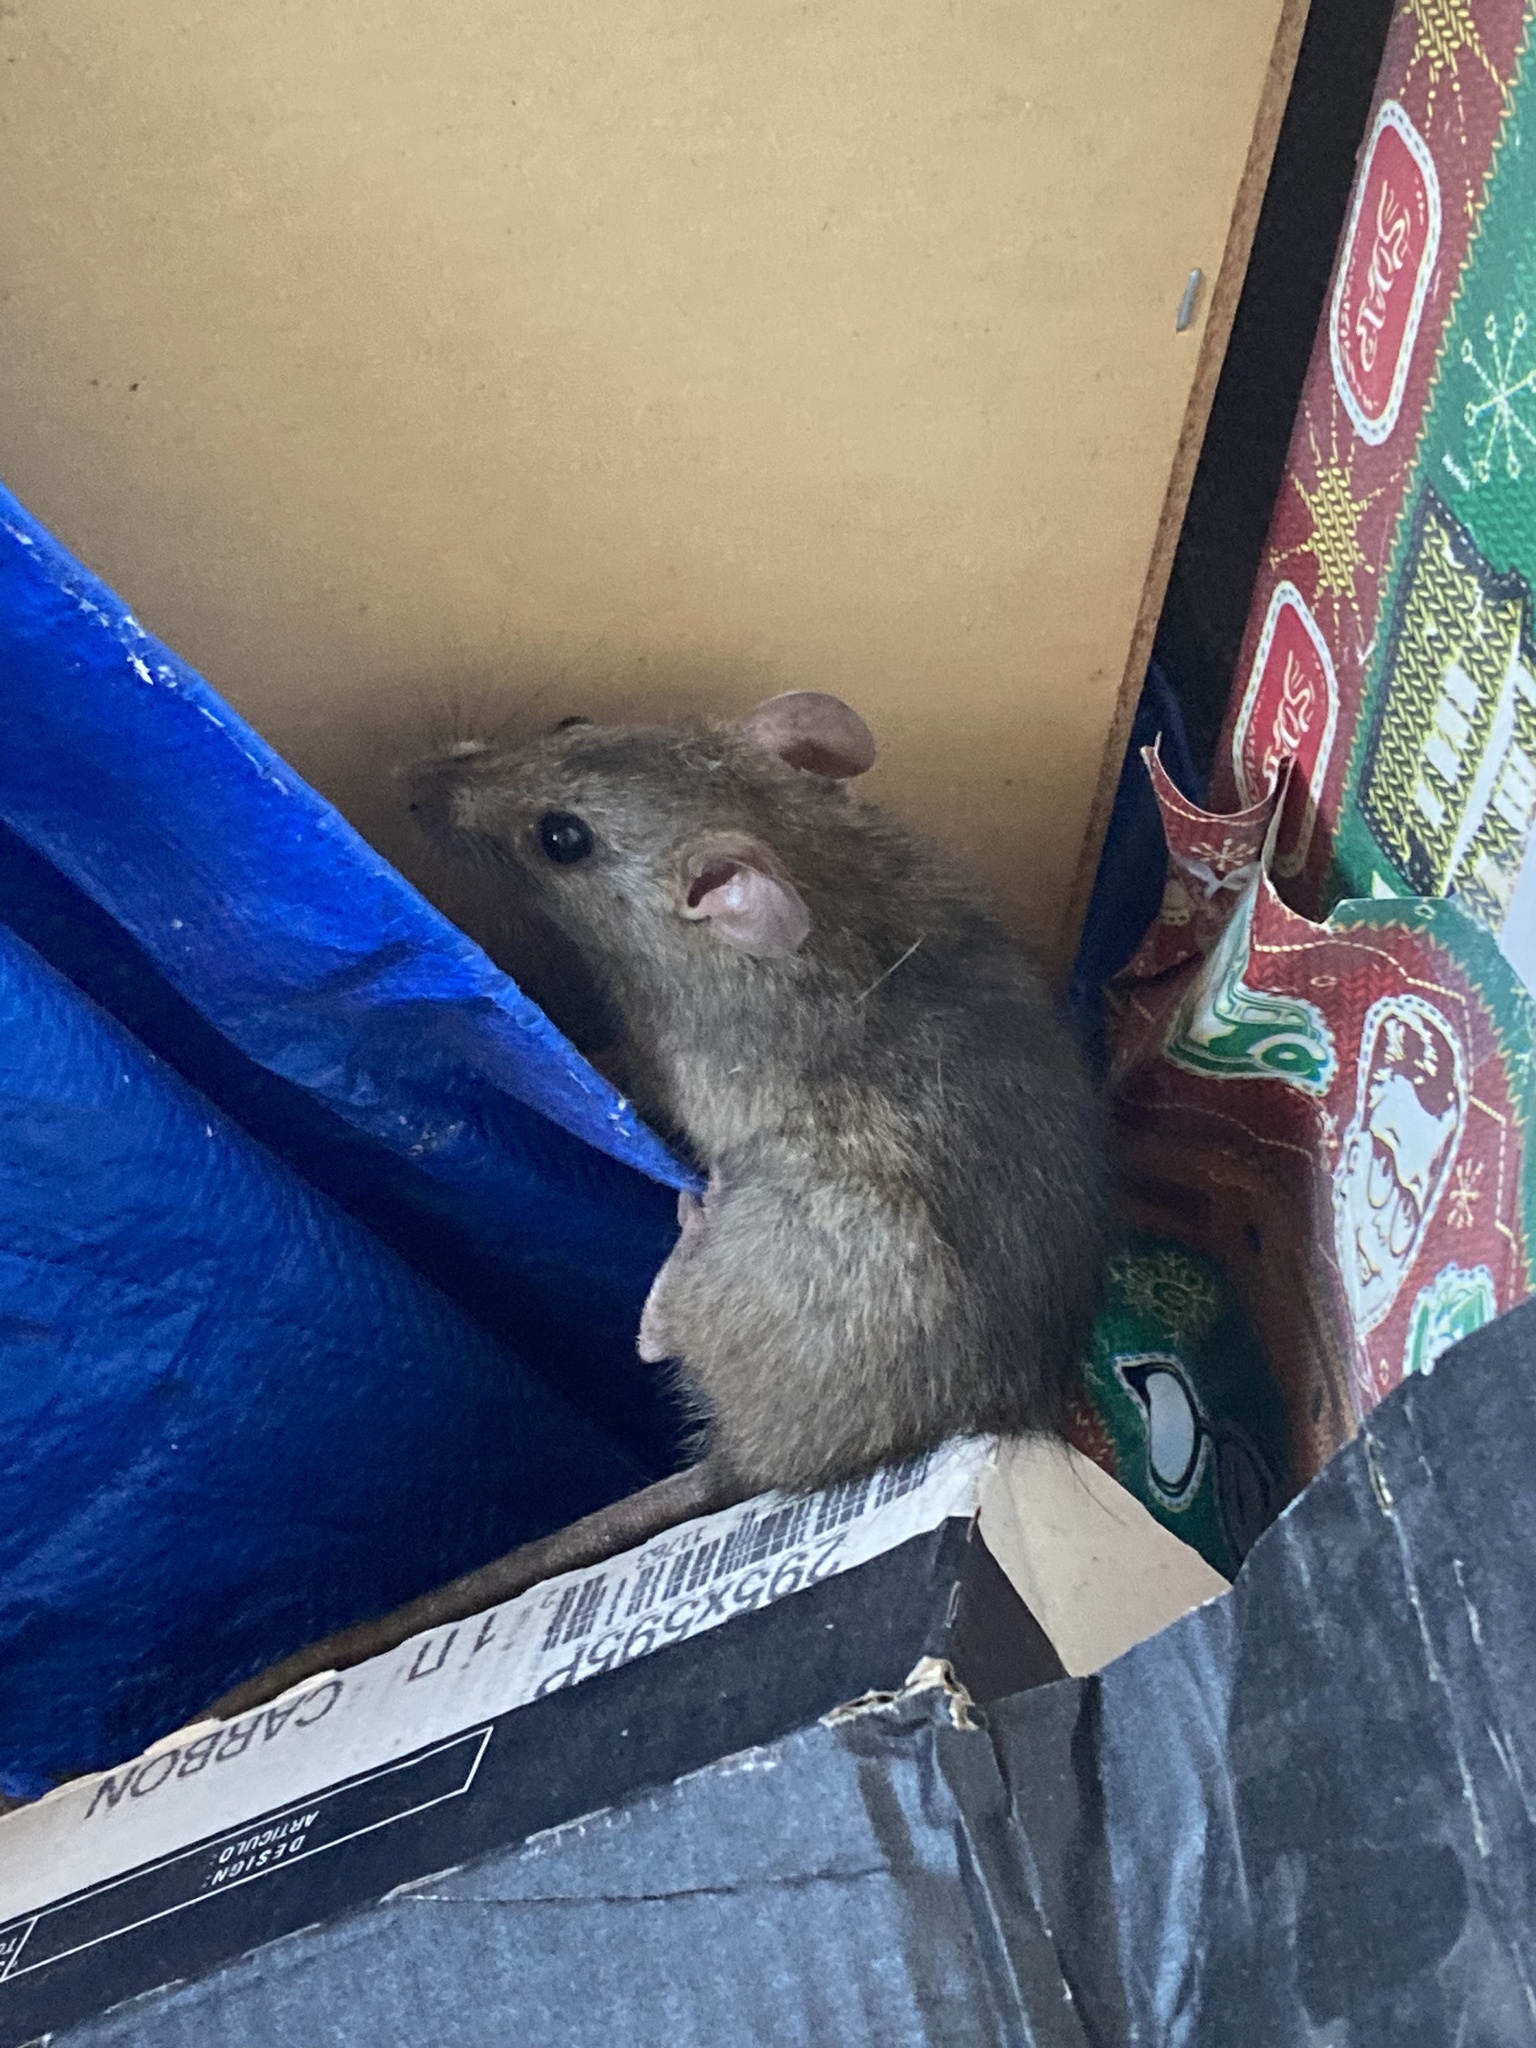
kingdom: Animalia
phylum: Chordata
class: Mammalia
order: Rodentia
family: Muridae
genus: Rattus
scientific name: Rattus rattus
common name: Black rat
